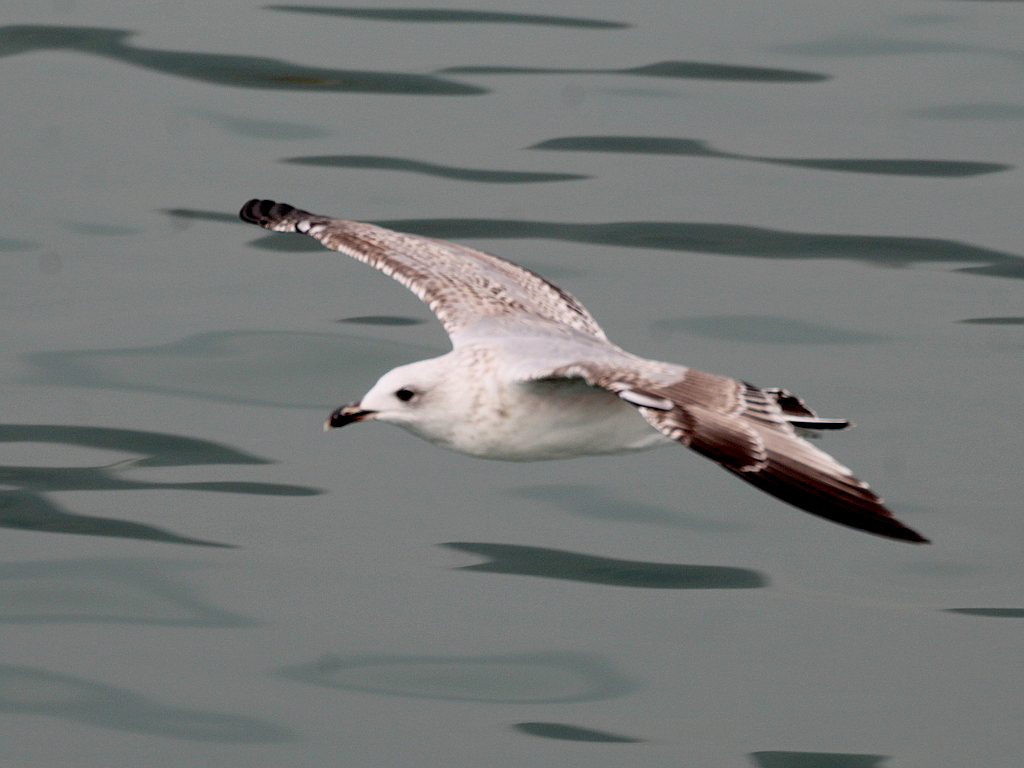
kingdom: Animalia
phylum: Chordata
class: Aves
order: Charadriiformes
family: Laridae
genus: Larus
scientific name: Larus michahellis
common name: Yellow-legged gull
